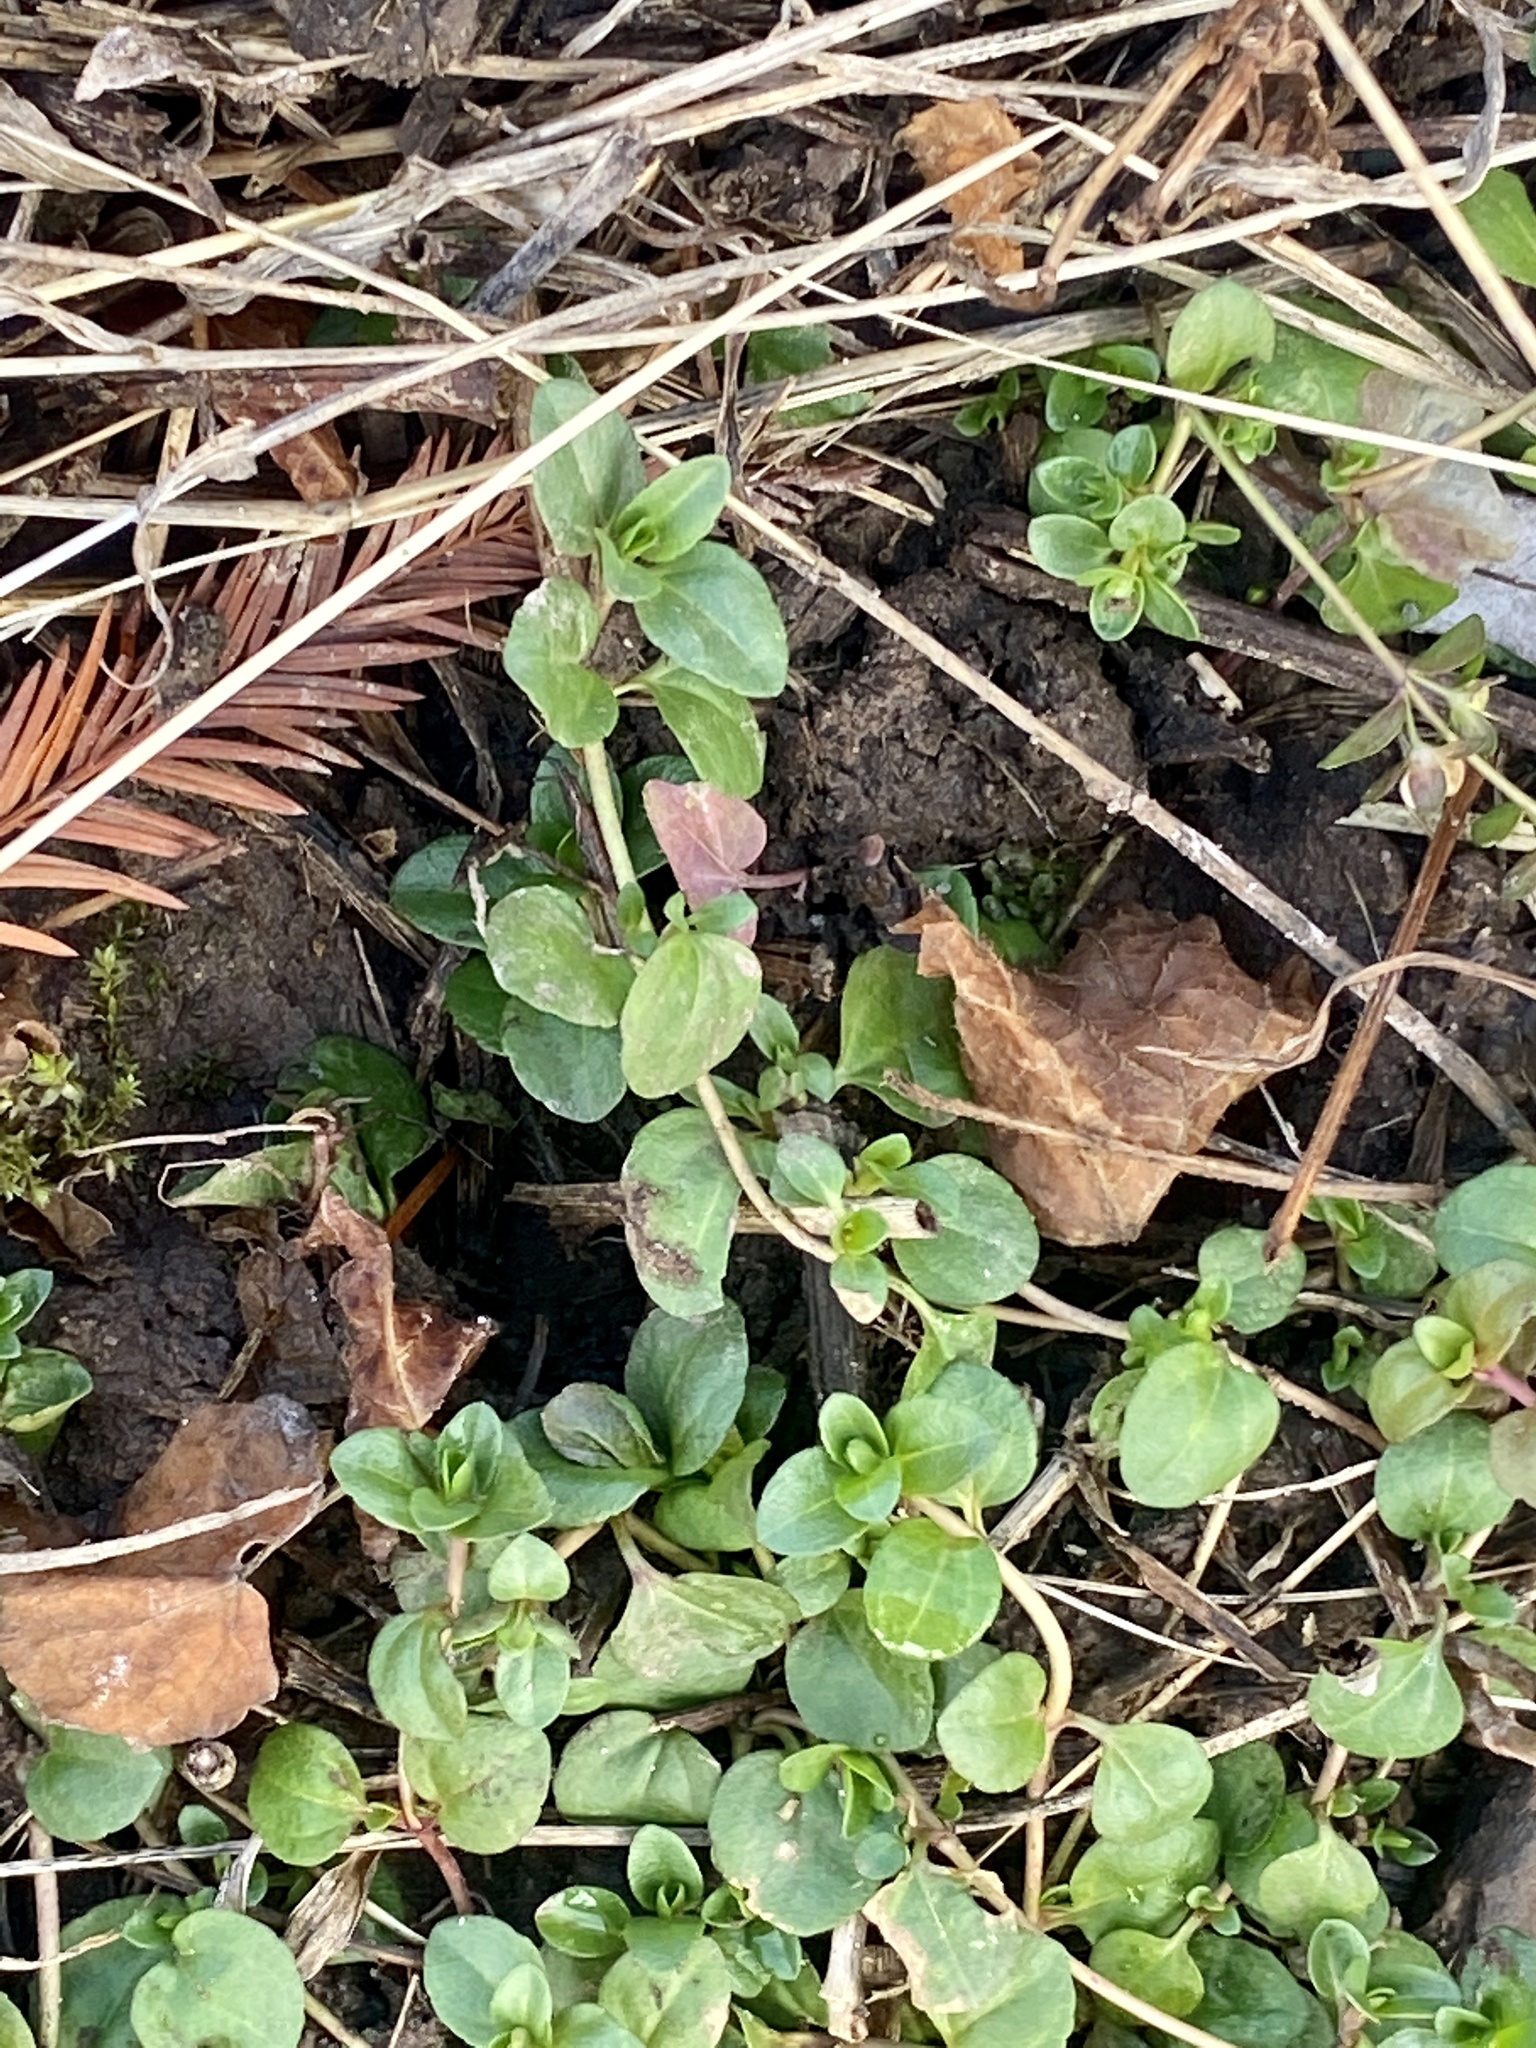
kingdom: Plantae
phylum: Tracheophyta
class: Magnoliopsida
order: Lamiales
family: Plantaginaceae
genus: Veronica
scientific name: Veronica serpyllifolia
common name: Thyme-leaved speedwell
